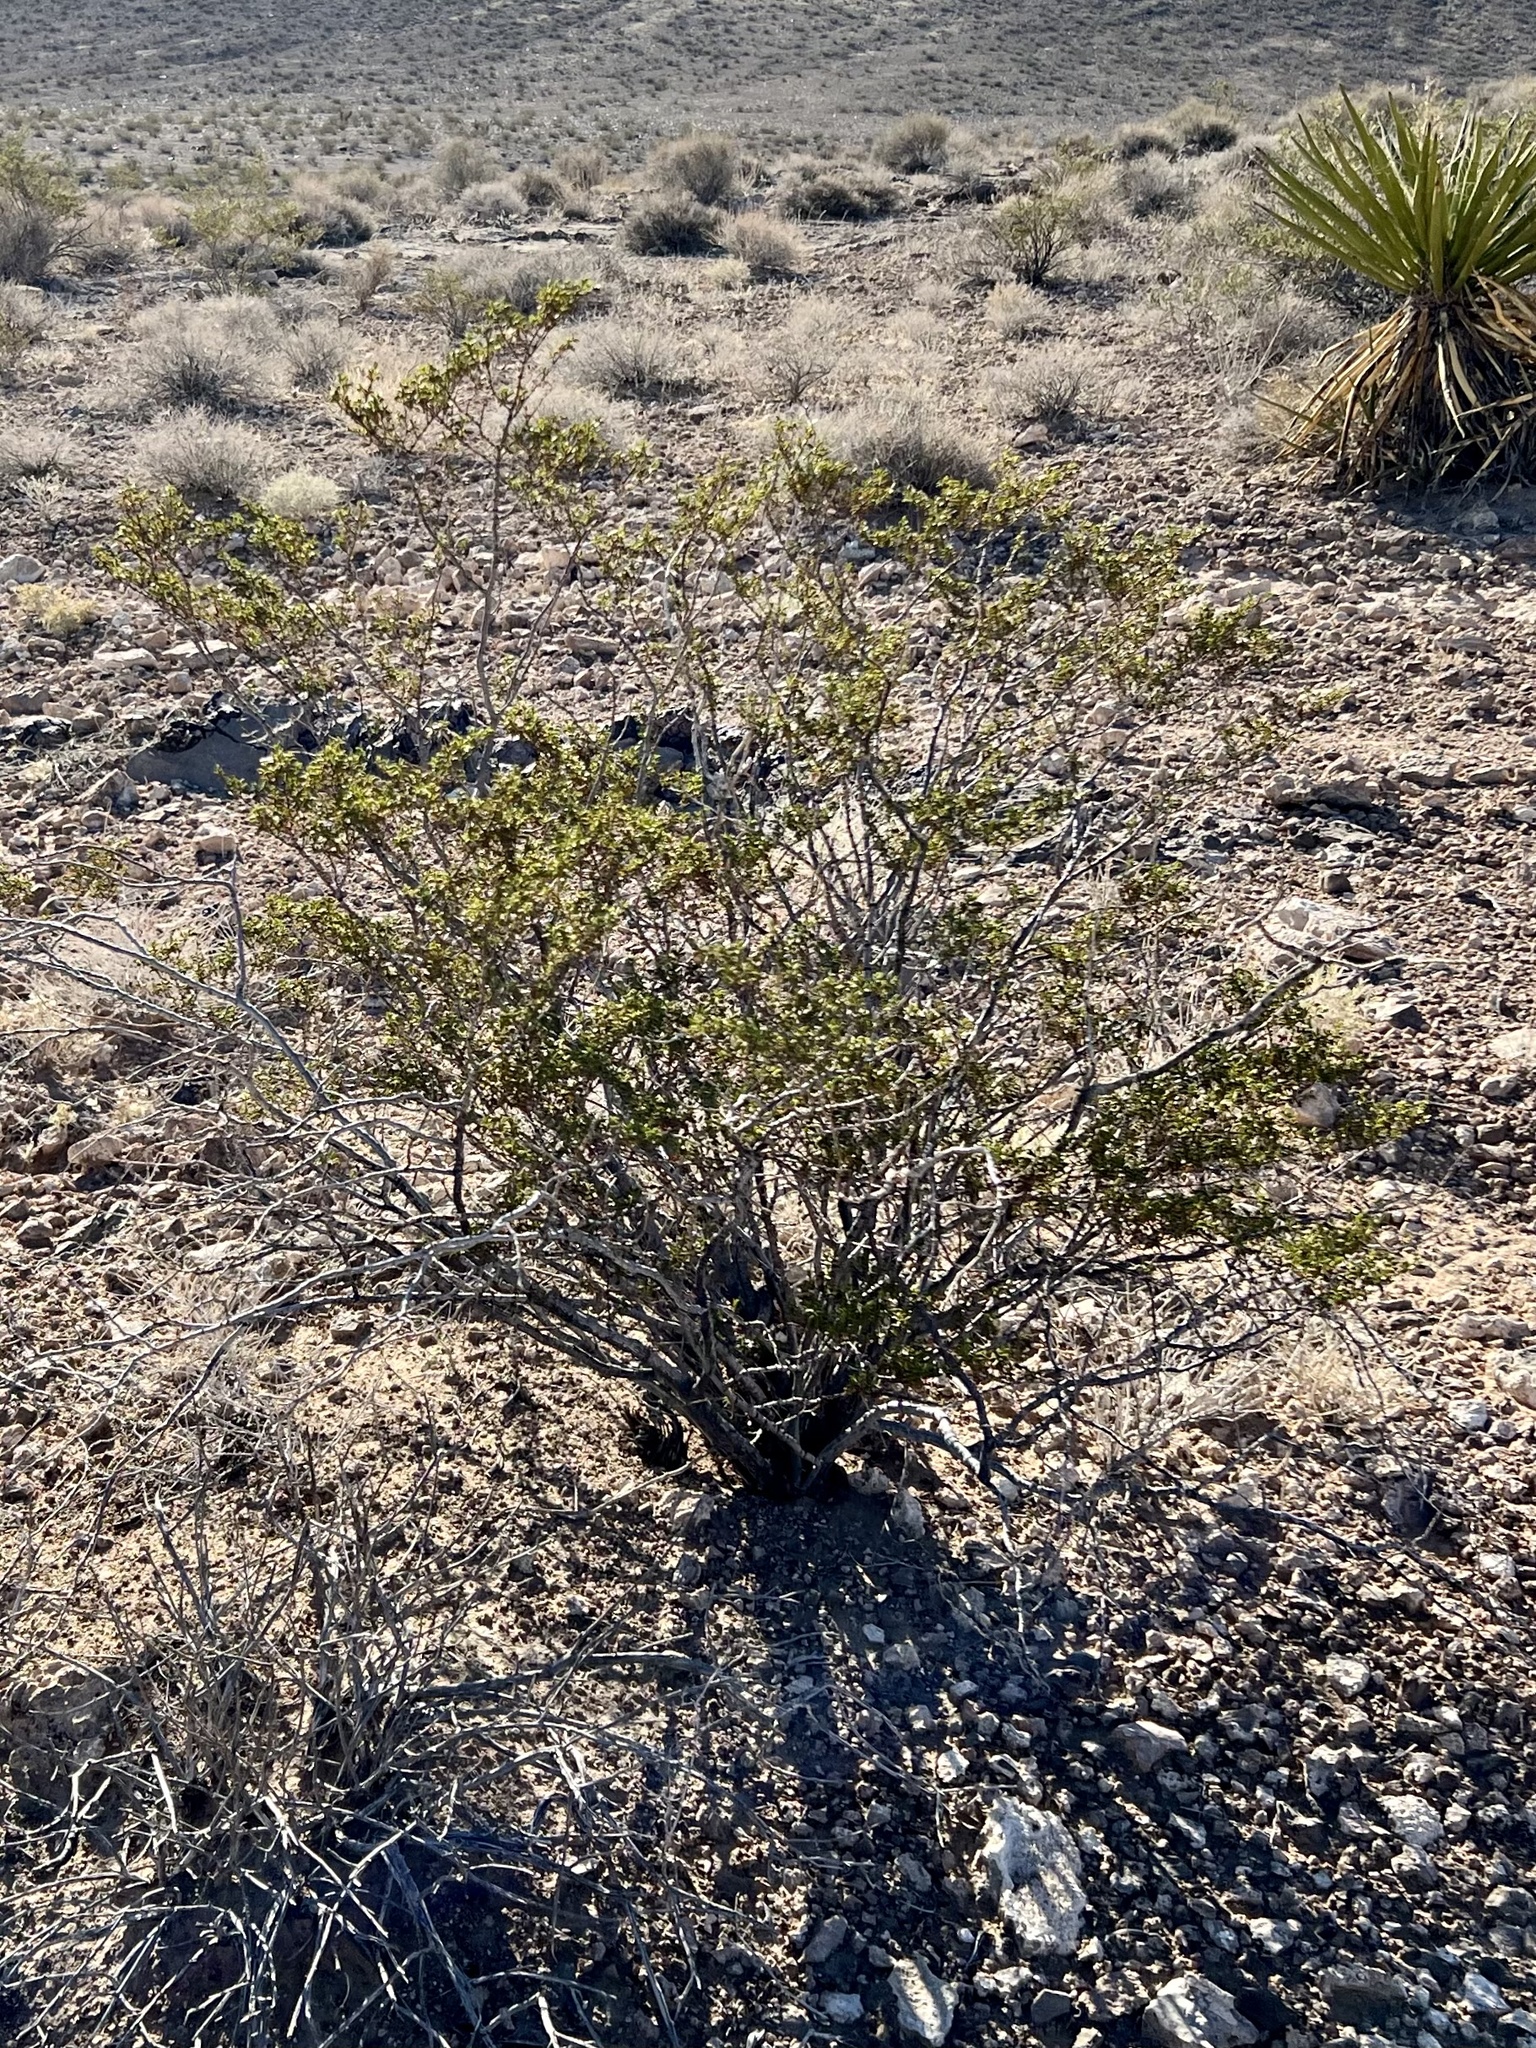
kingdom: Plantae
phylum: Tracheophyta
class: Magnoliopsida
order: Zygophyllales
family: Zygophyllaceae
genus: Larrea
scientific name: Larrea tridentata
